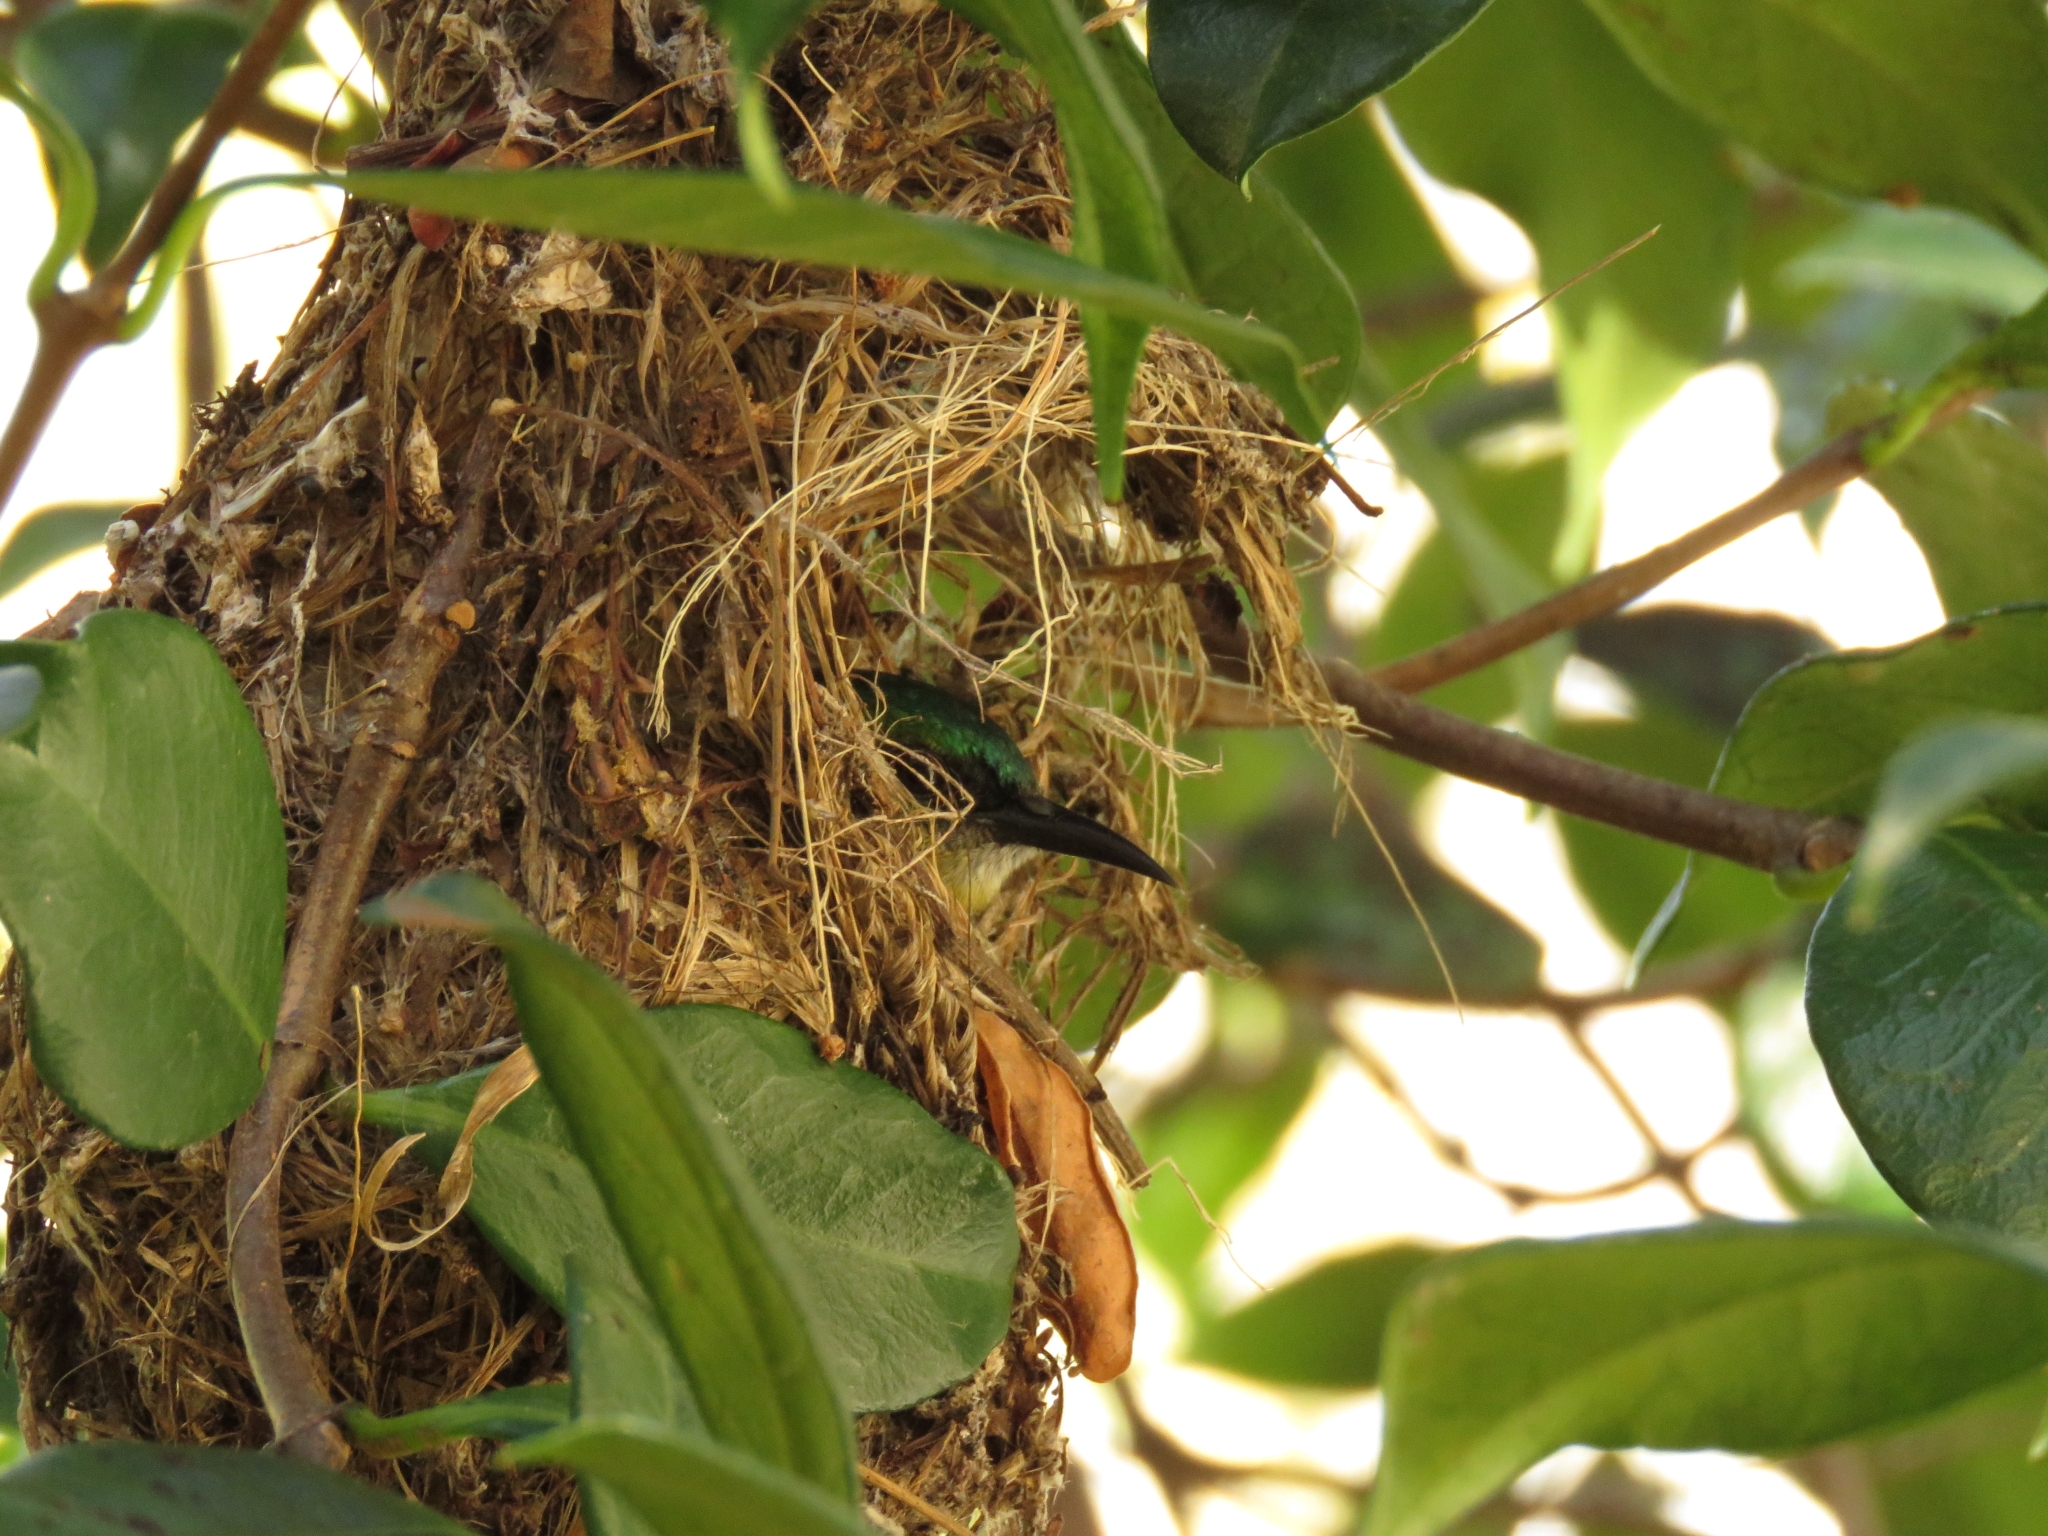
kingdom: Animalia
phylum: Chordata
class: Aves
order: Passeriformes
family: Nectariniidae
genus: Hedydipna
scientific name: Hedydipna collaris
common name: Collared sunbird
